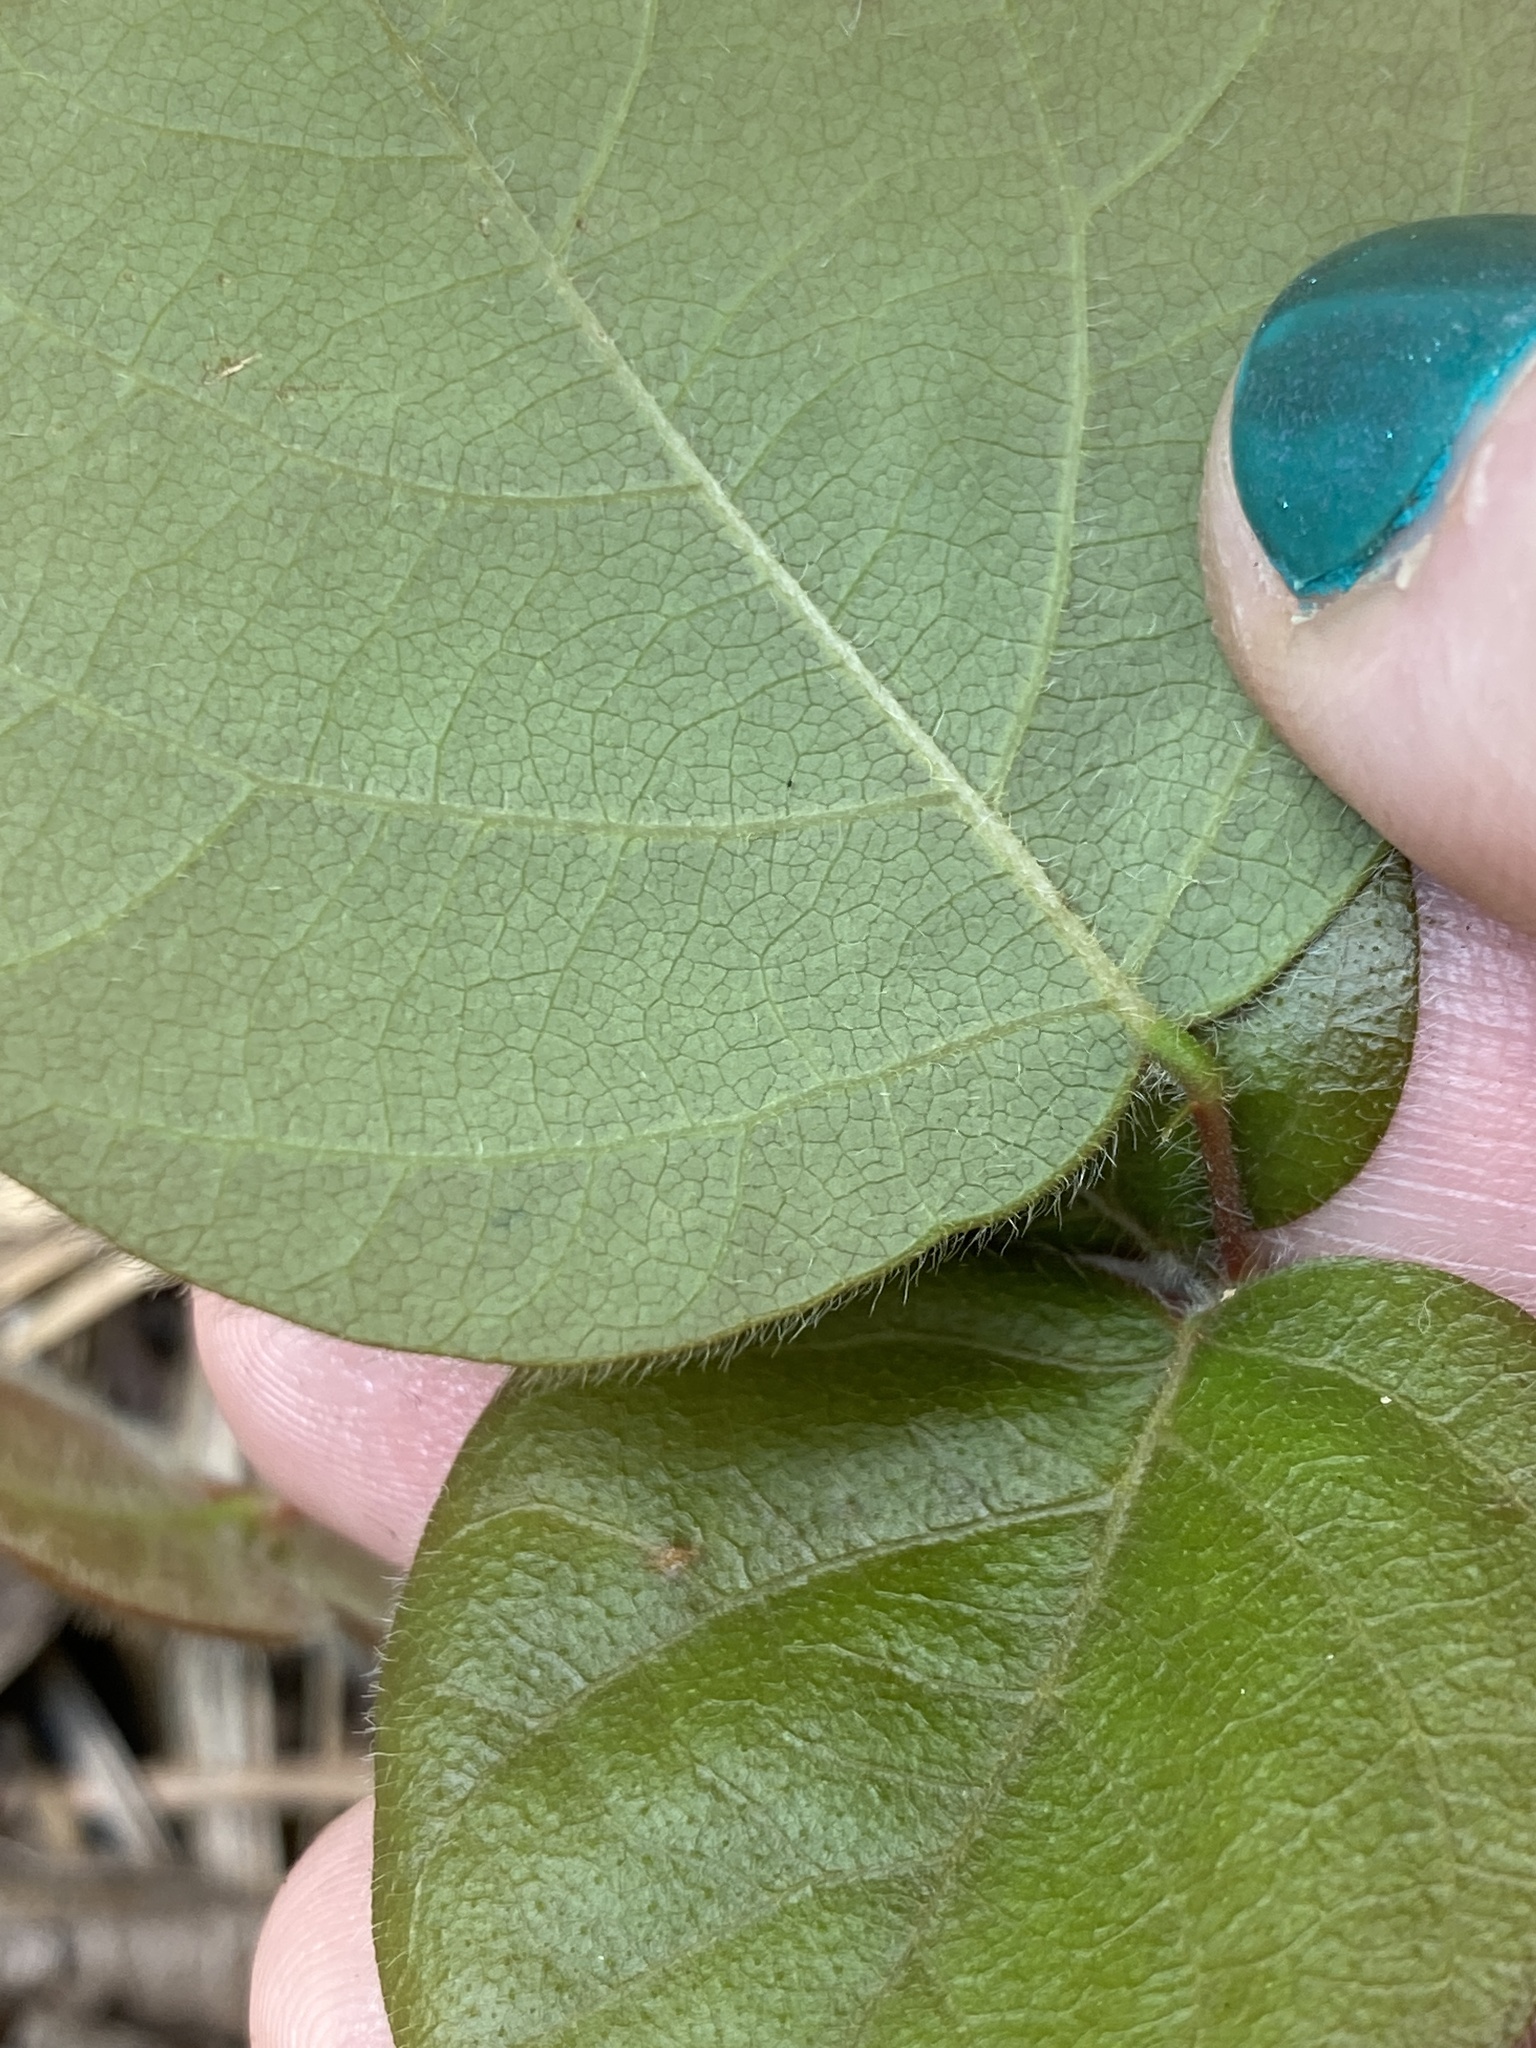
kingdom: Plantae
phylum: Tracheophyta
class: Magnoliopsida
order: Fabales
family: Fabaceae
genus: Desmodium
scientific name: Desmodium rotundifolium
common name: Dollarleaf
